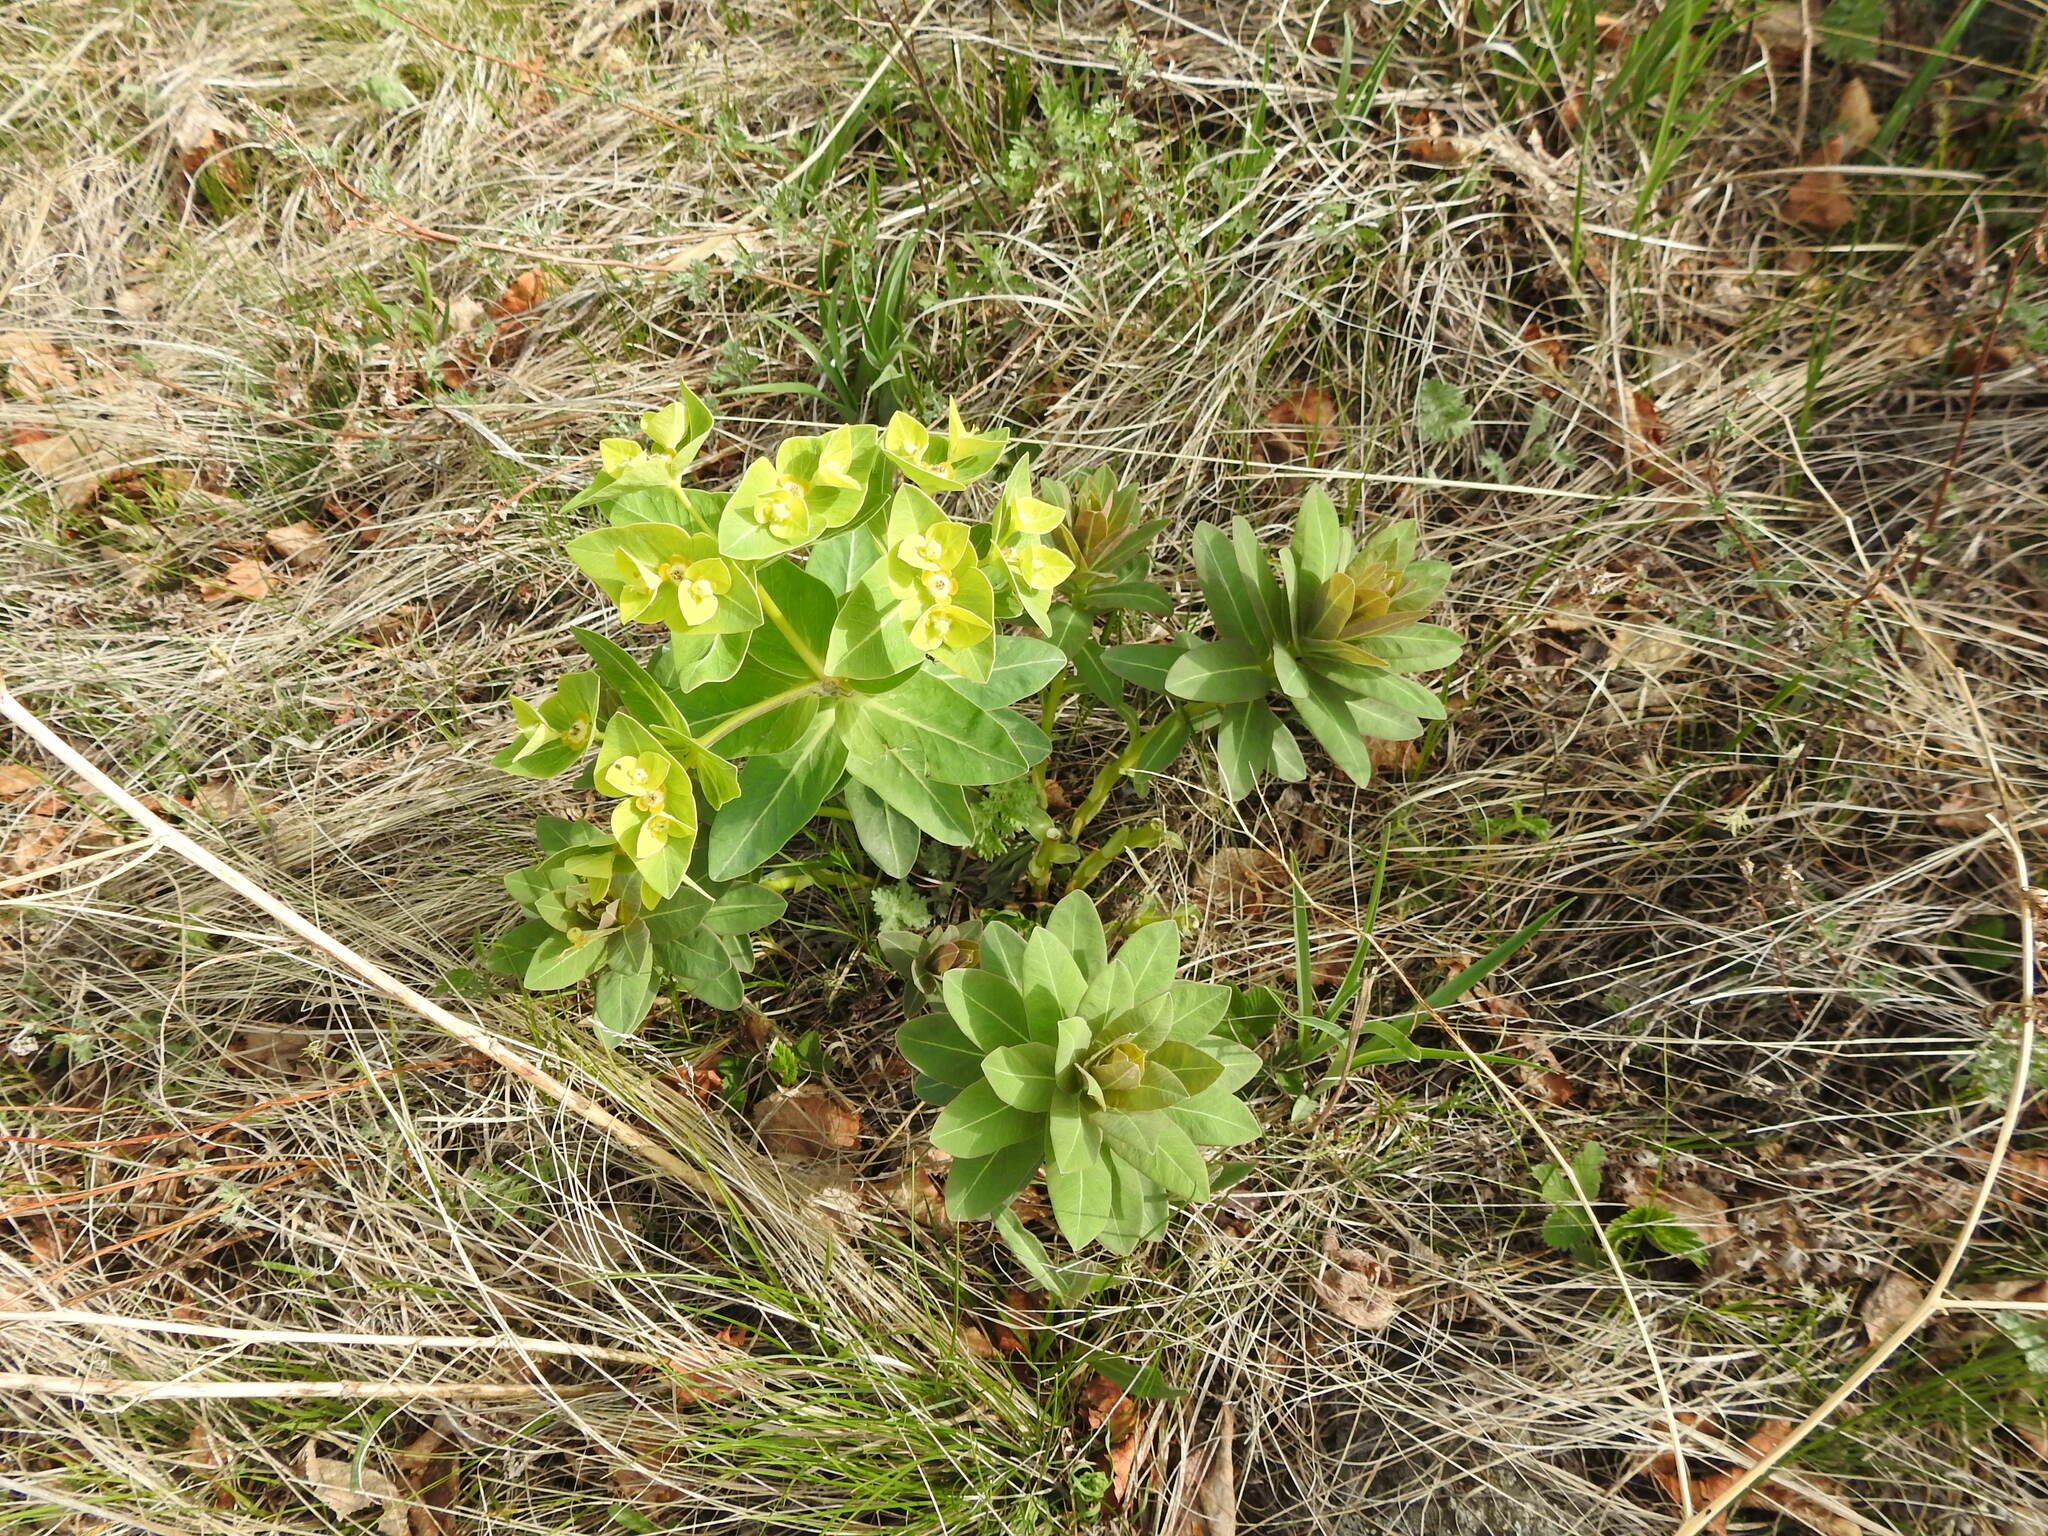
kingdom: Plantae
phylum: Tracheophyta
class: Magnoliopsida
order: Malpighiales
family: Euphorbiaceae
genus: Euphorbia
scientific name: Euphorbia fischeriana
